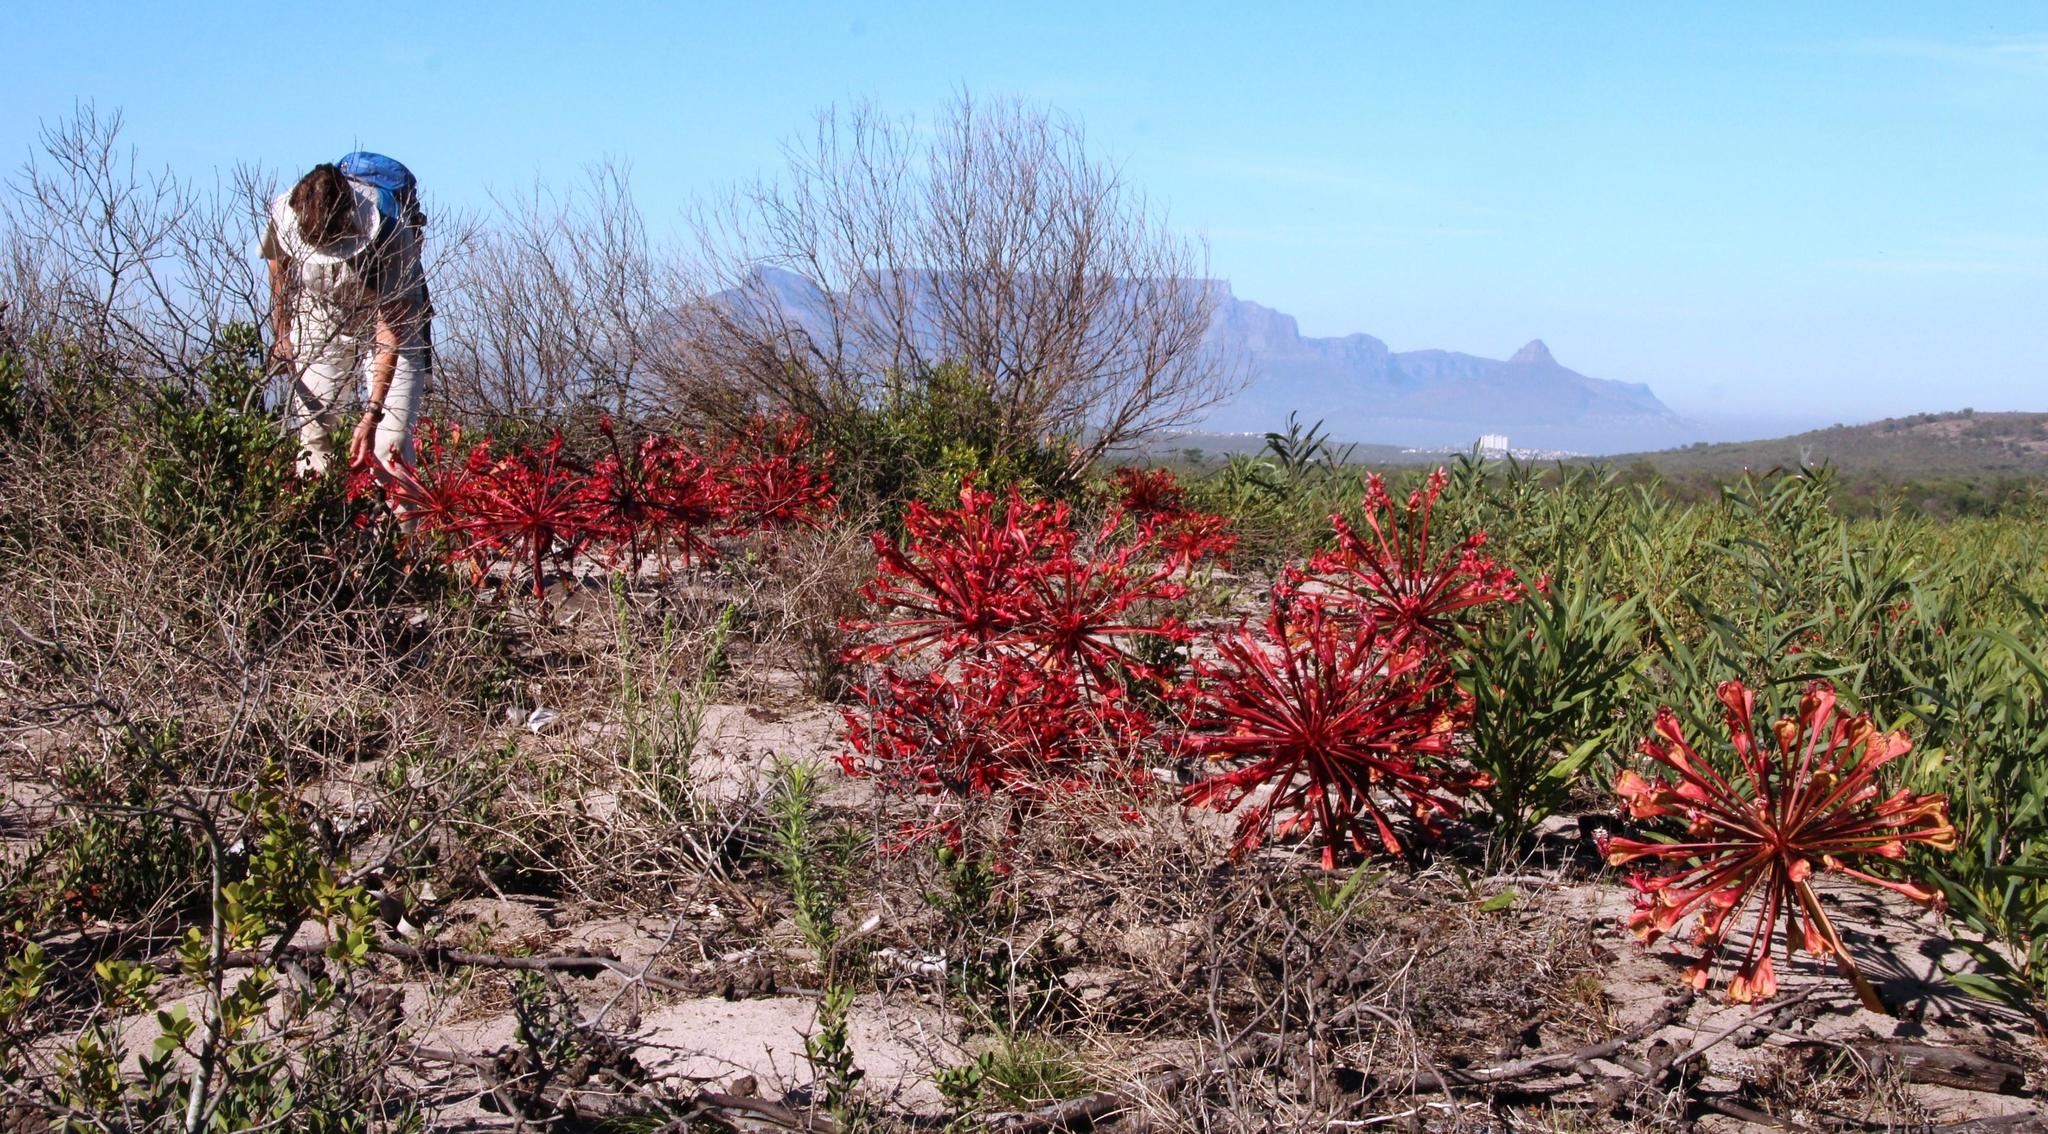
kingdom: Plantae
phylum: Tracheophyta
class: Liliopsida
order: Asparagales
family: Amaryllidaceae
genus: Brunsvigia
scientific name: Brunsvigia orientalis
